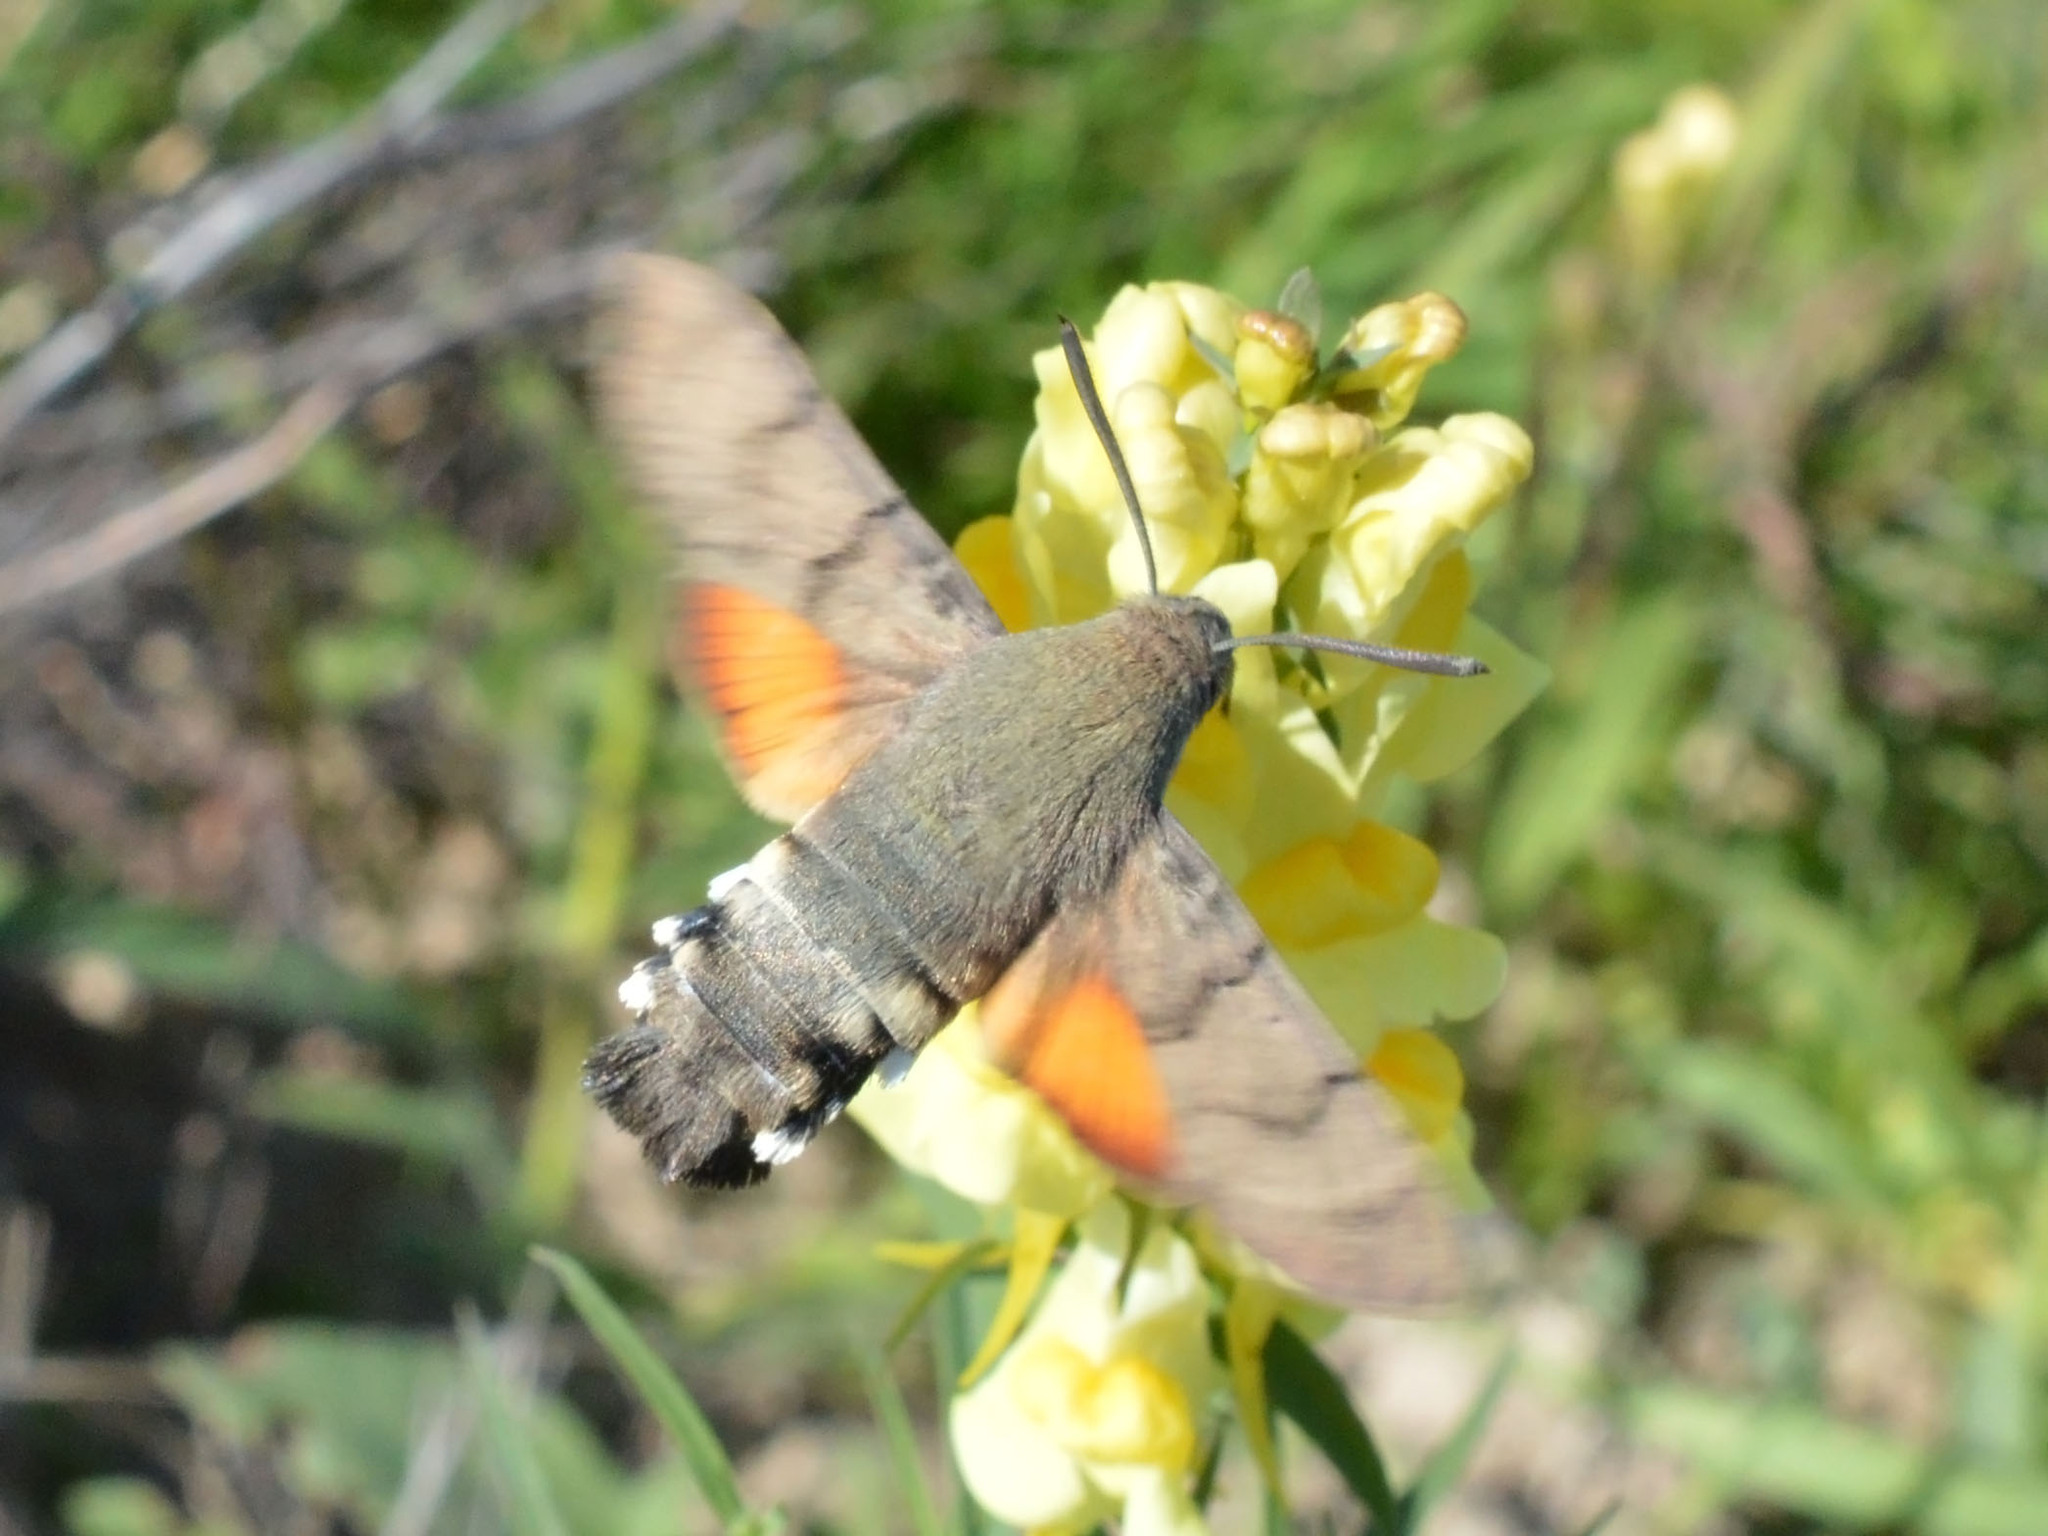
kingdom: Animalia
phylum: Arthropoda
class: Insecta
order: Lepidoptera
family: Sphingidae
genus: Macroglossum
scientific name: Macroglossum stellatarum
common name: Humming-bird hawk-moth
